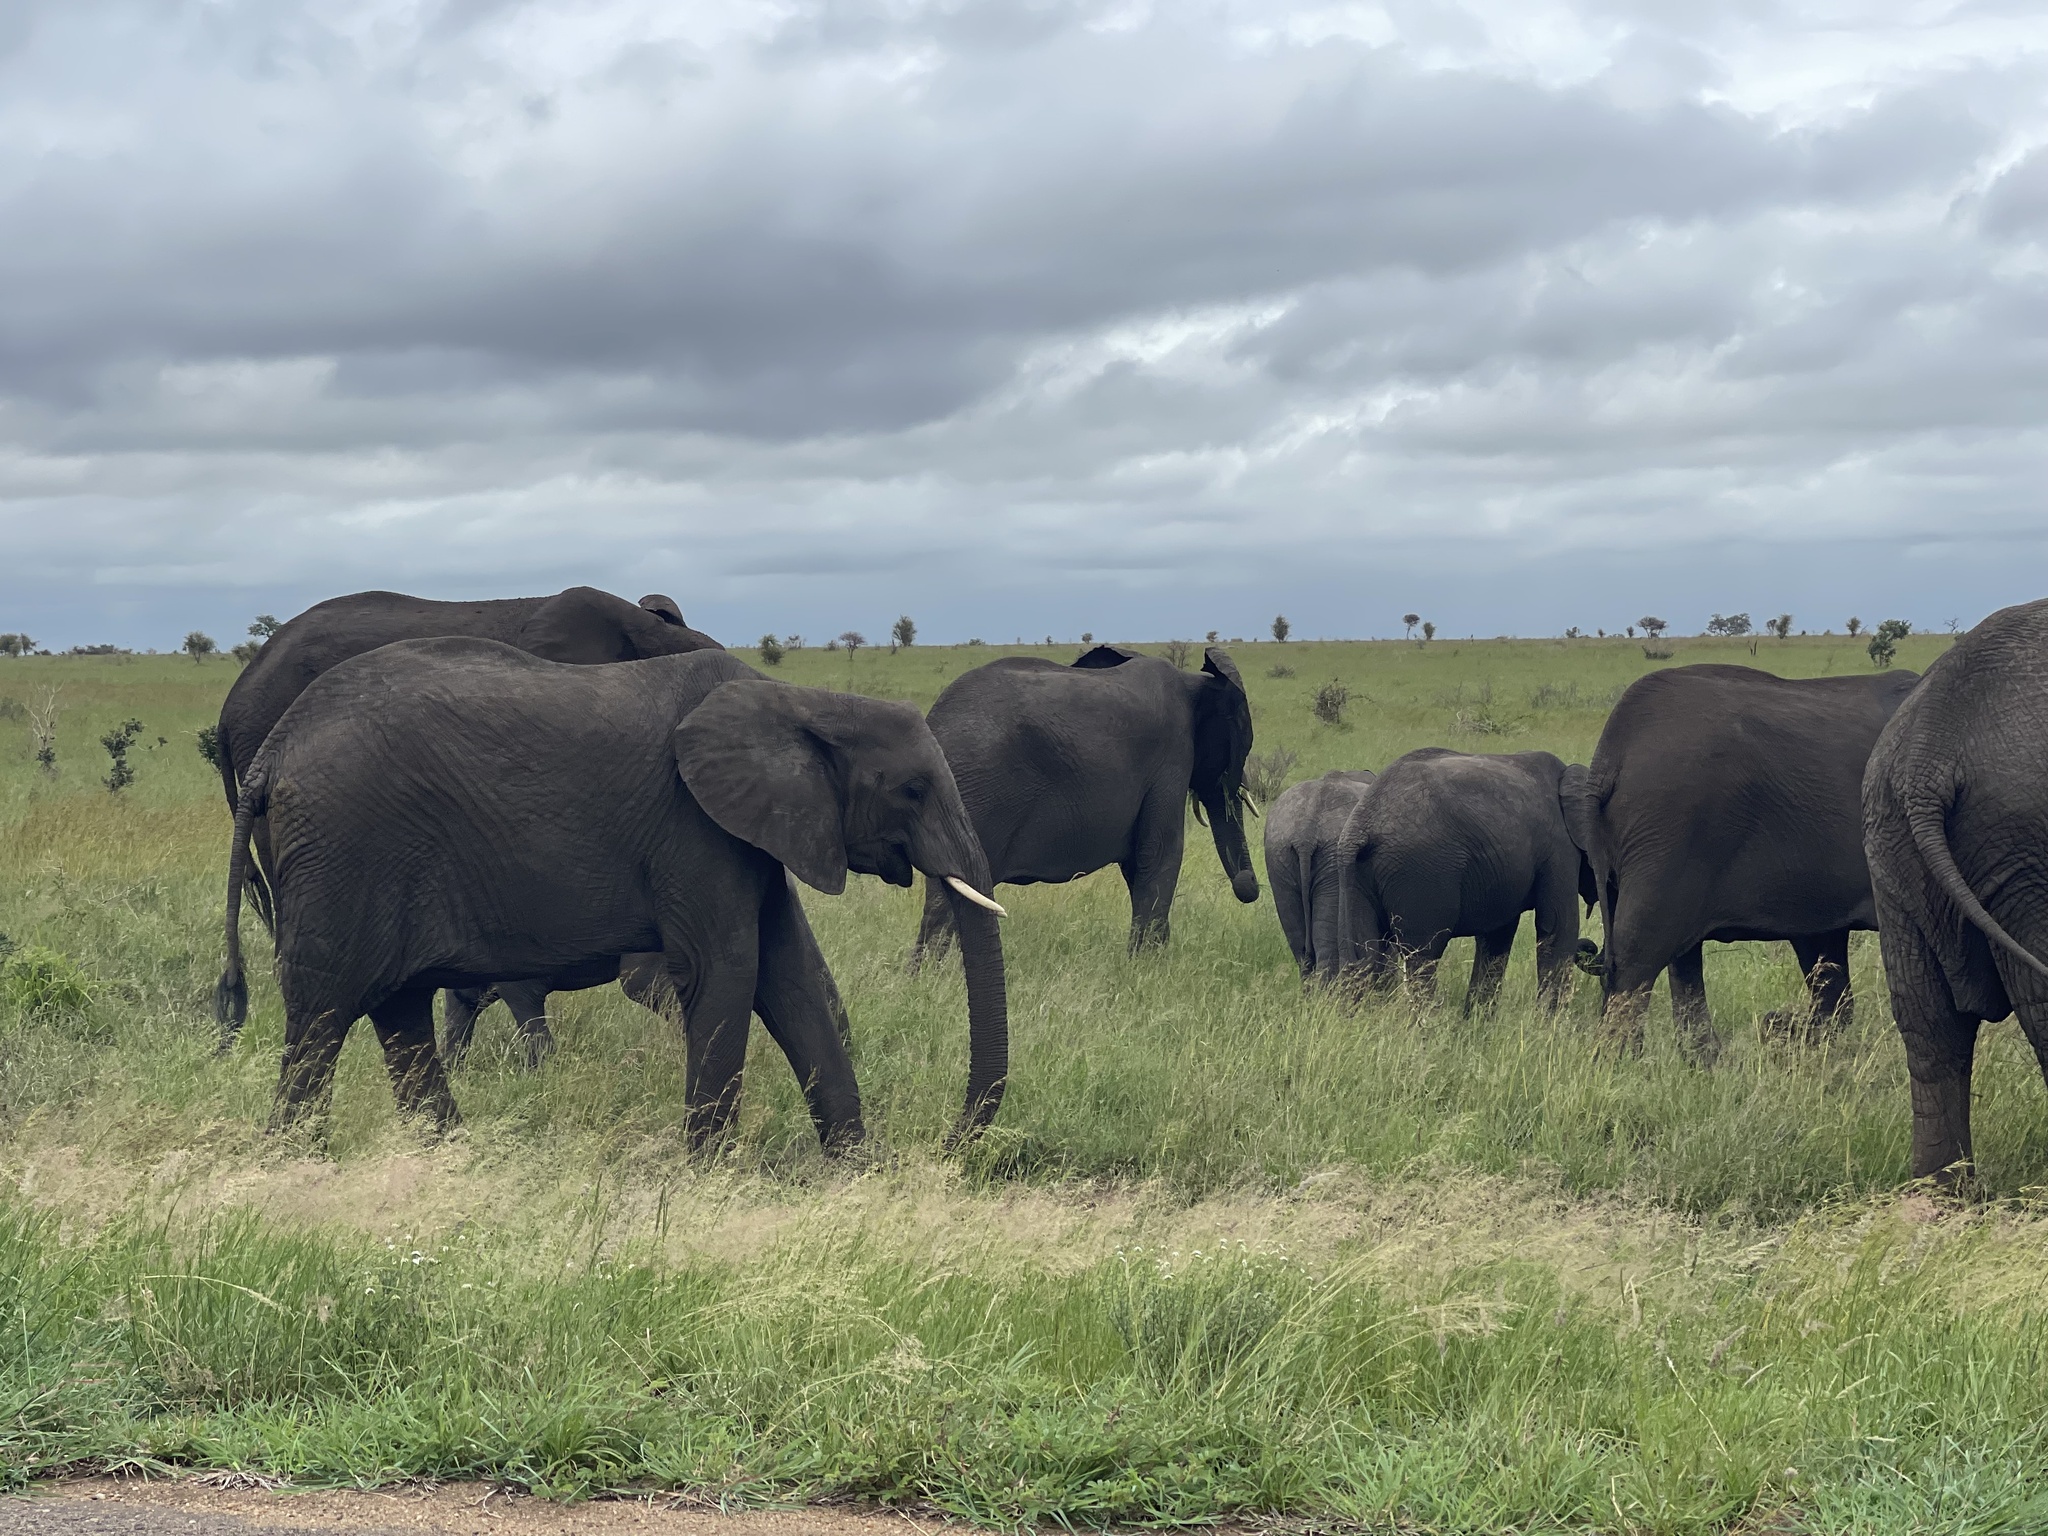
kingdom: Animalia
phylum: Chordata
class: Mammalia
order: Proboscidea
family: Elephantidae
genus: Loxodonta
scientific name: Loxodonta africana
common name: African elephant
